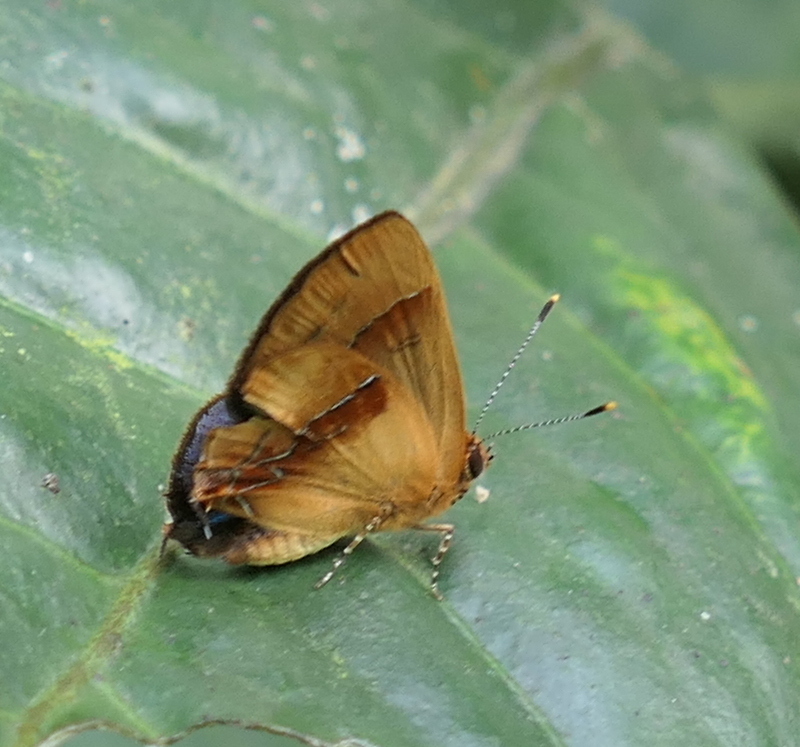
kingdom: Animalia
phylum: Arthropoda
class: Insecta
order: Lepidoptera
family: Lycaenidae
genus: Thecla
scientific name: Thecla demonassa
